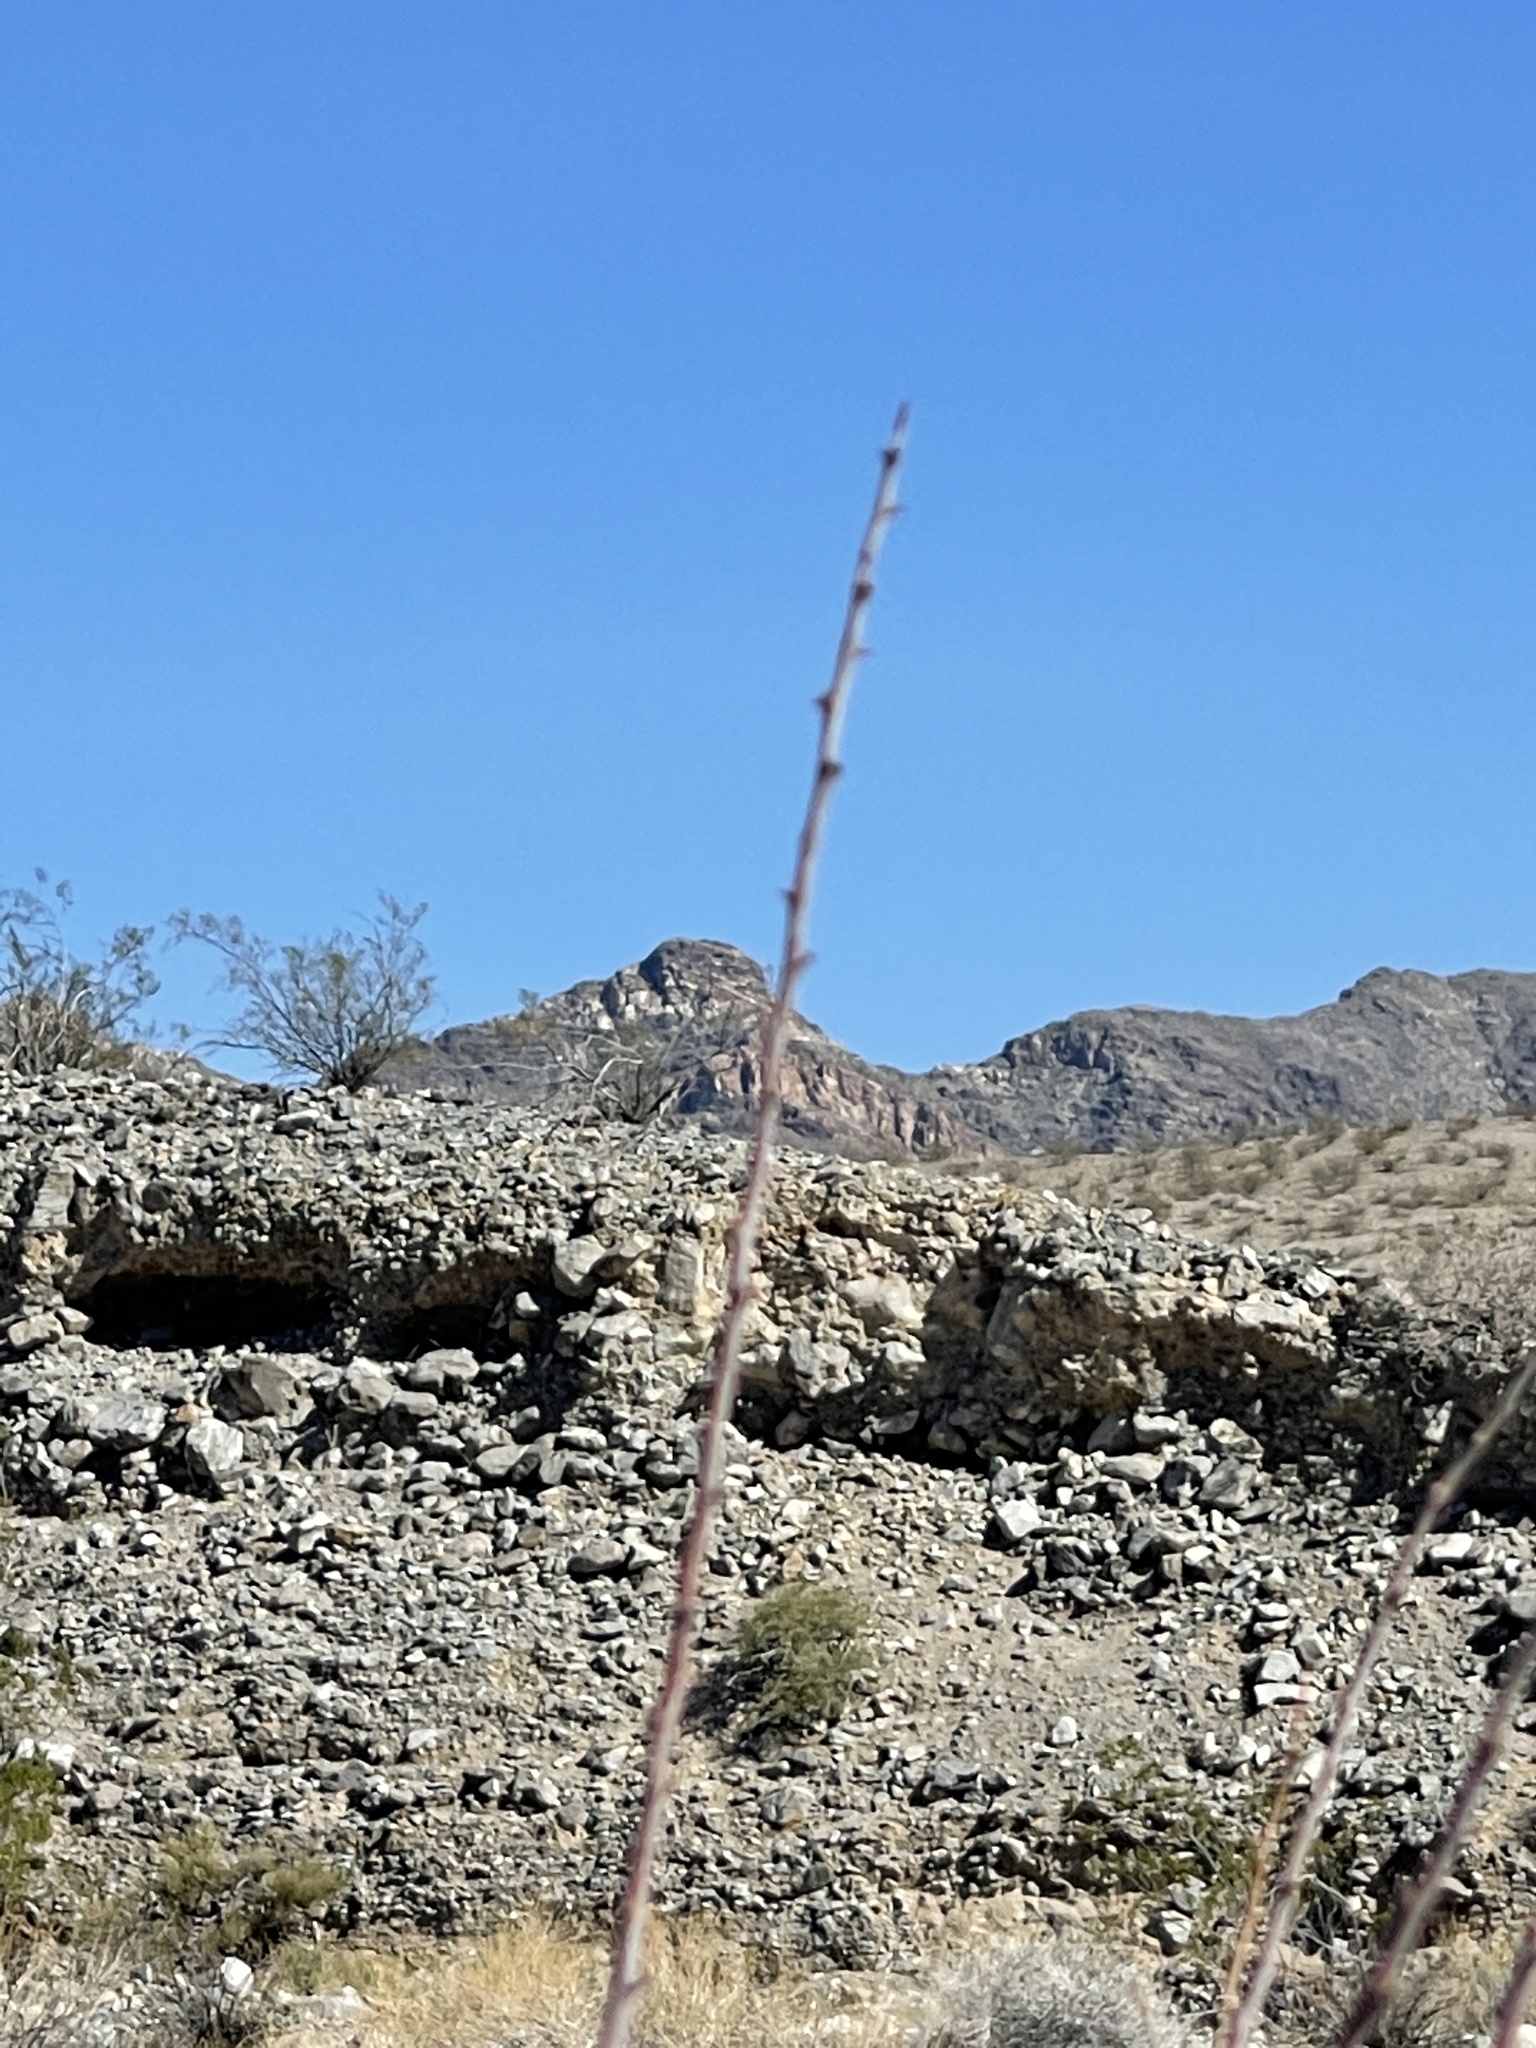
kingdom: Plantae
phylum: Tracheophyta
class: Magnoliopsida
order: Fabales
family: Fabaceae
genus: Senegalia
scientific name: Senegalia greggii
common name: Texas-mimosa
